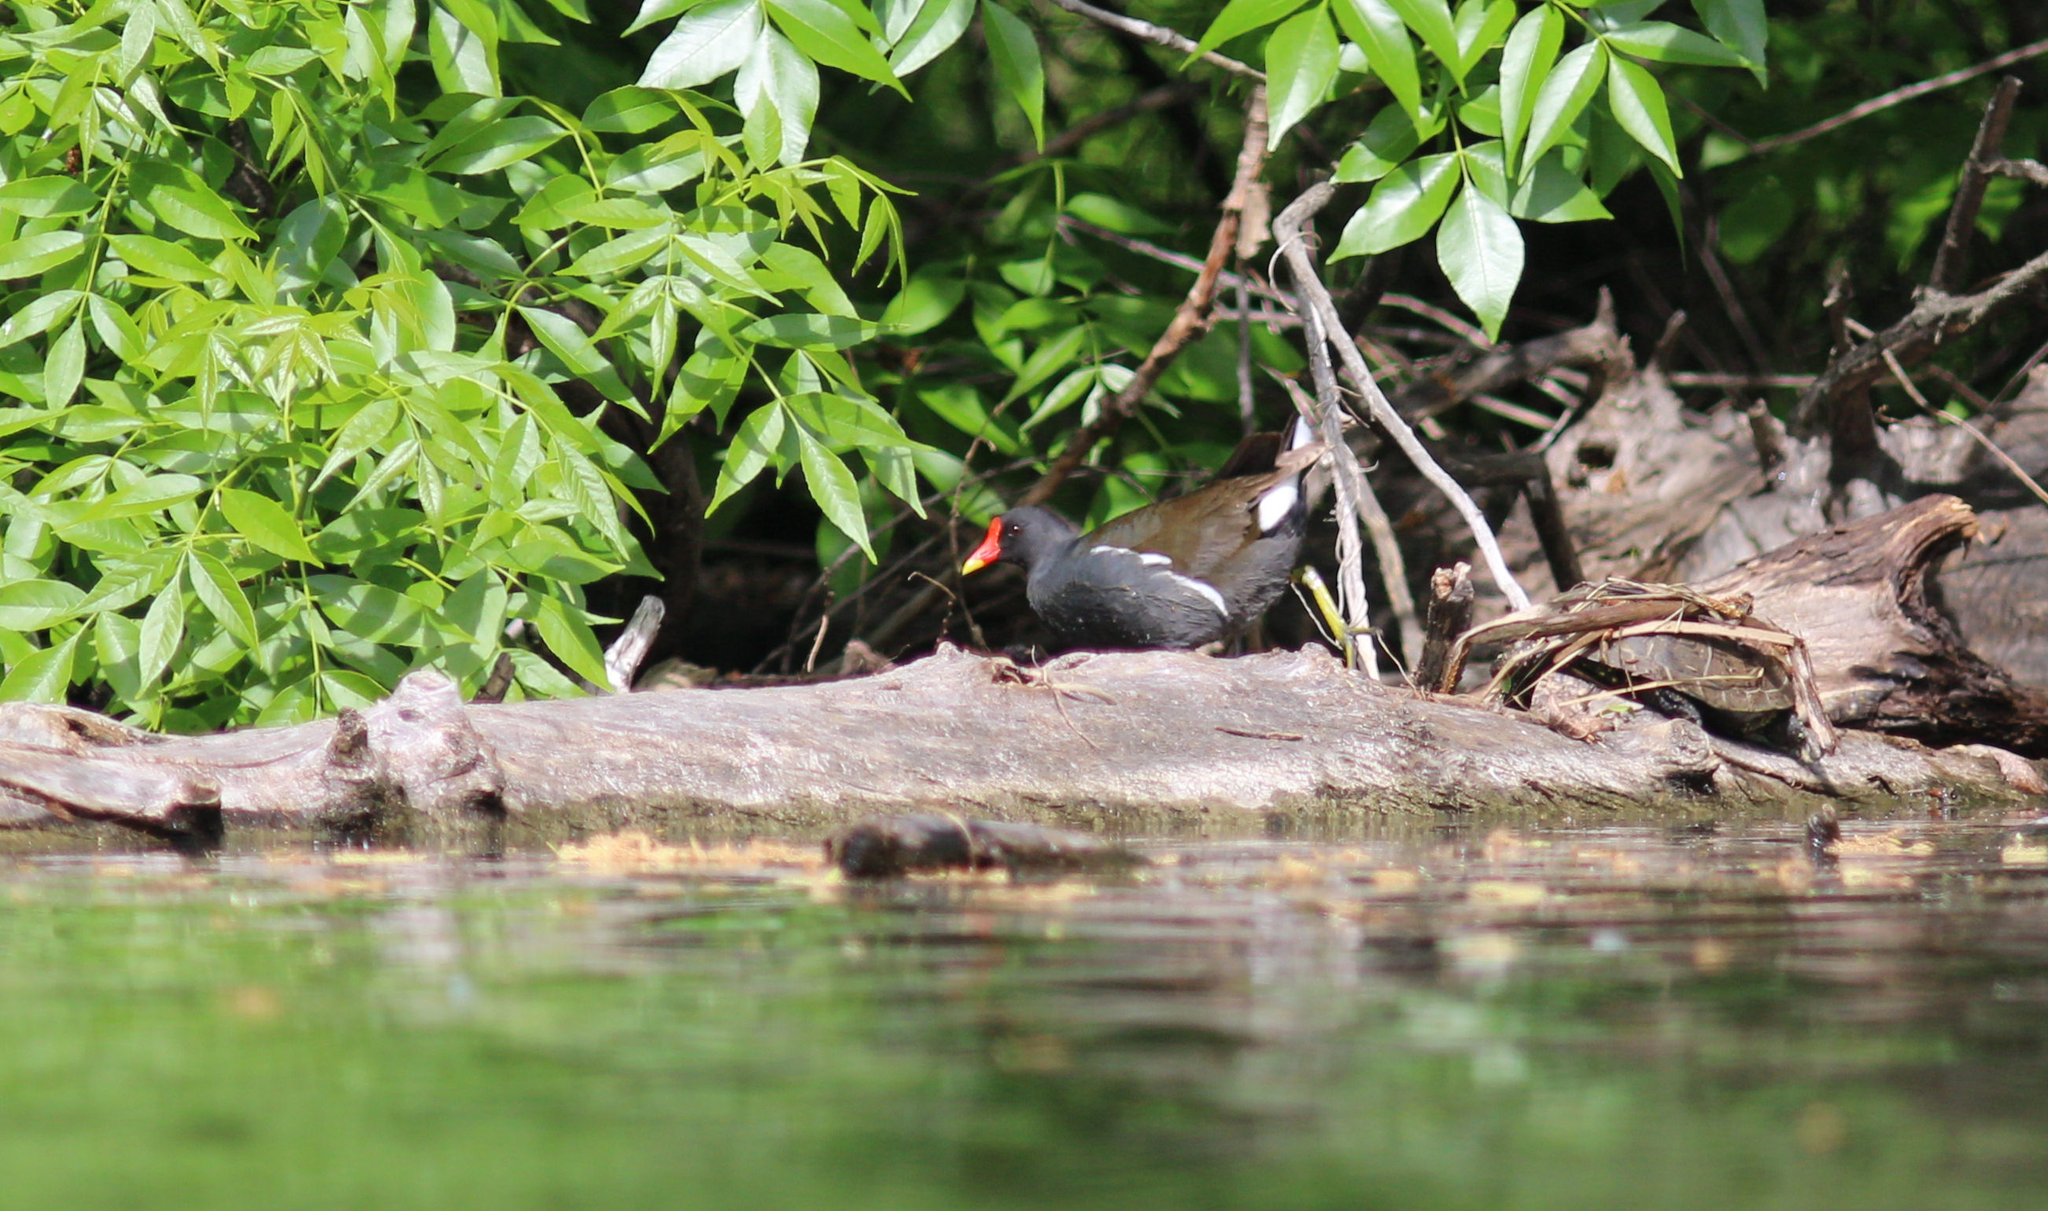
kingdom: Animalia
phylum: Chordata
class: Aves
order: Gruiformes
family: Rallidae
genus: Gallinula
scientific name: Gallinula chloropus
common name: Common moorhen
